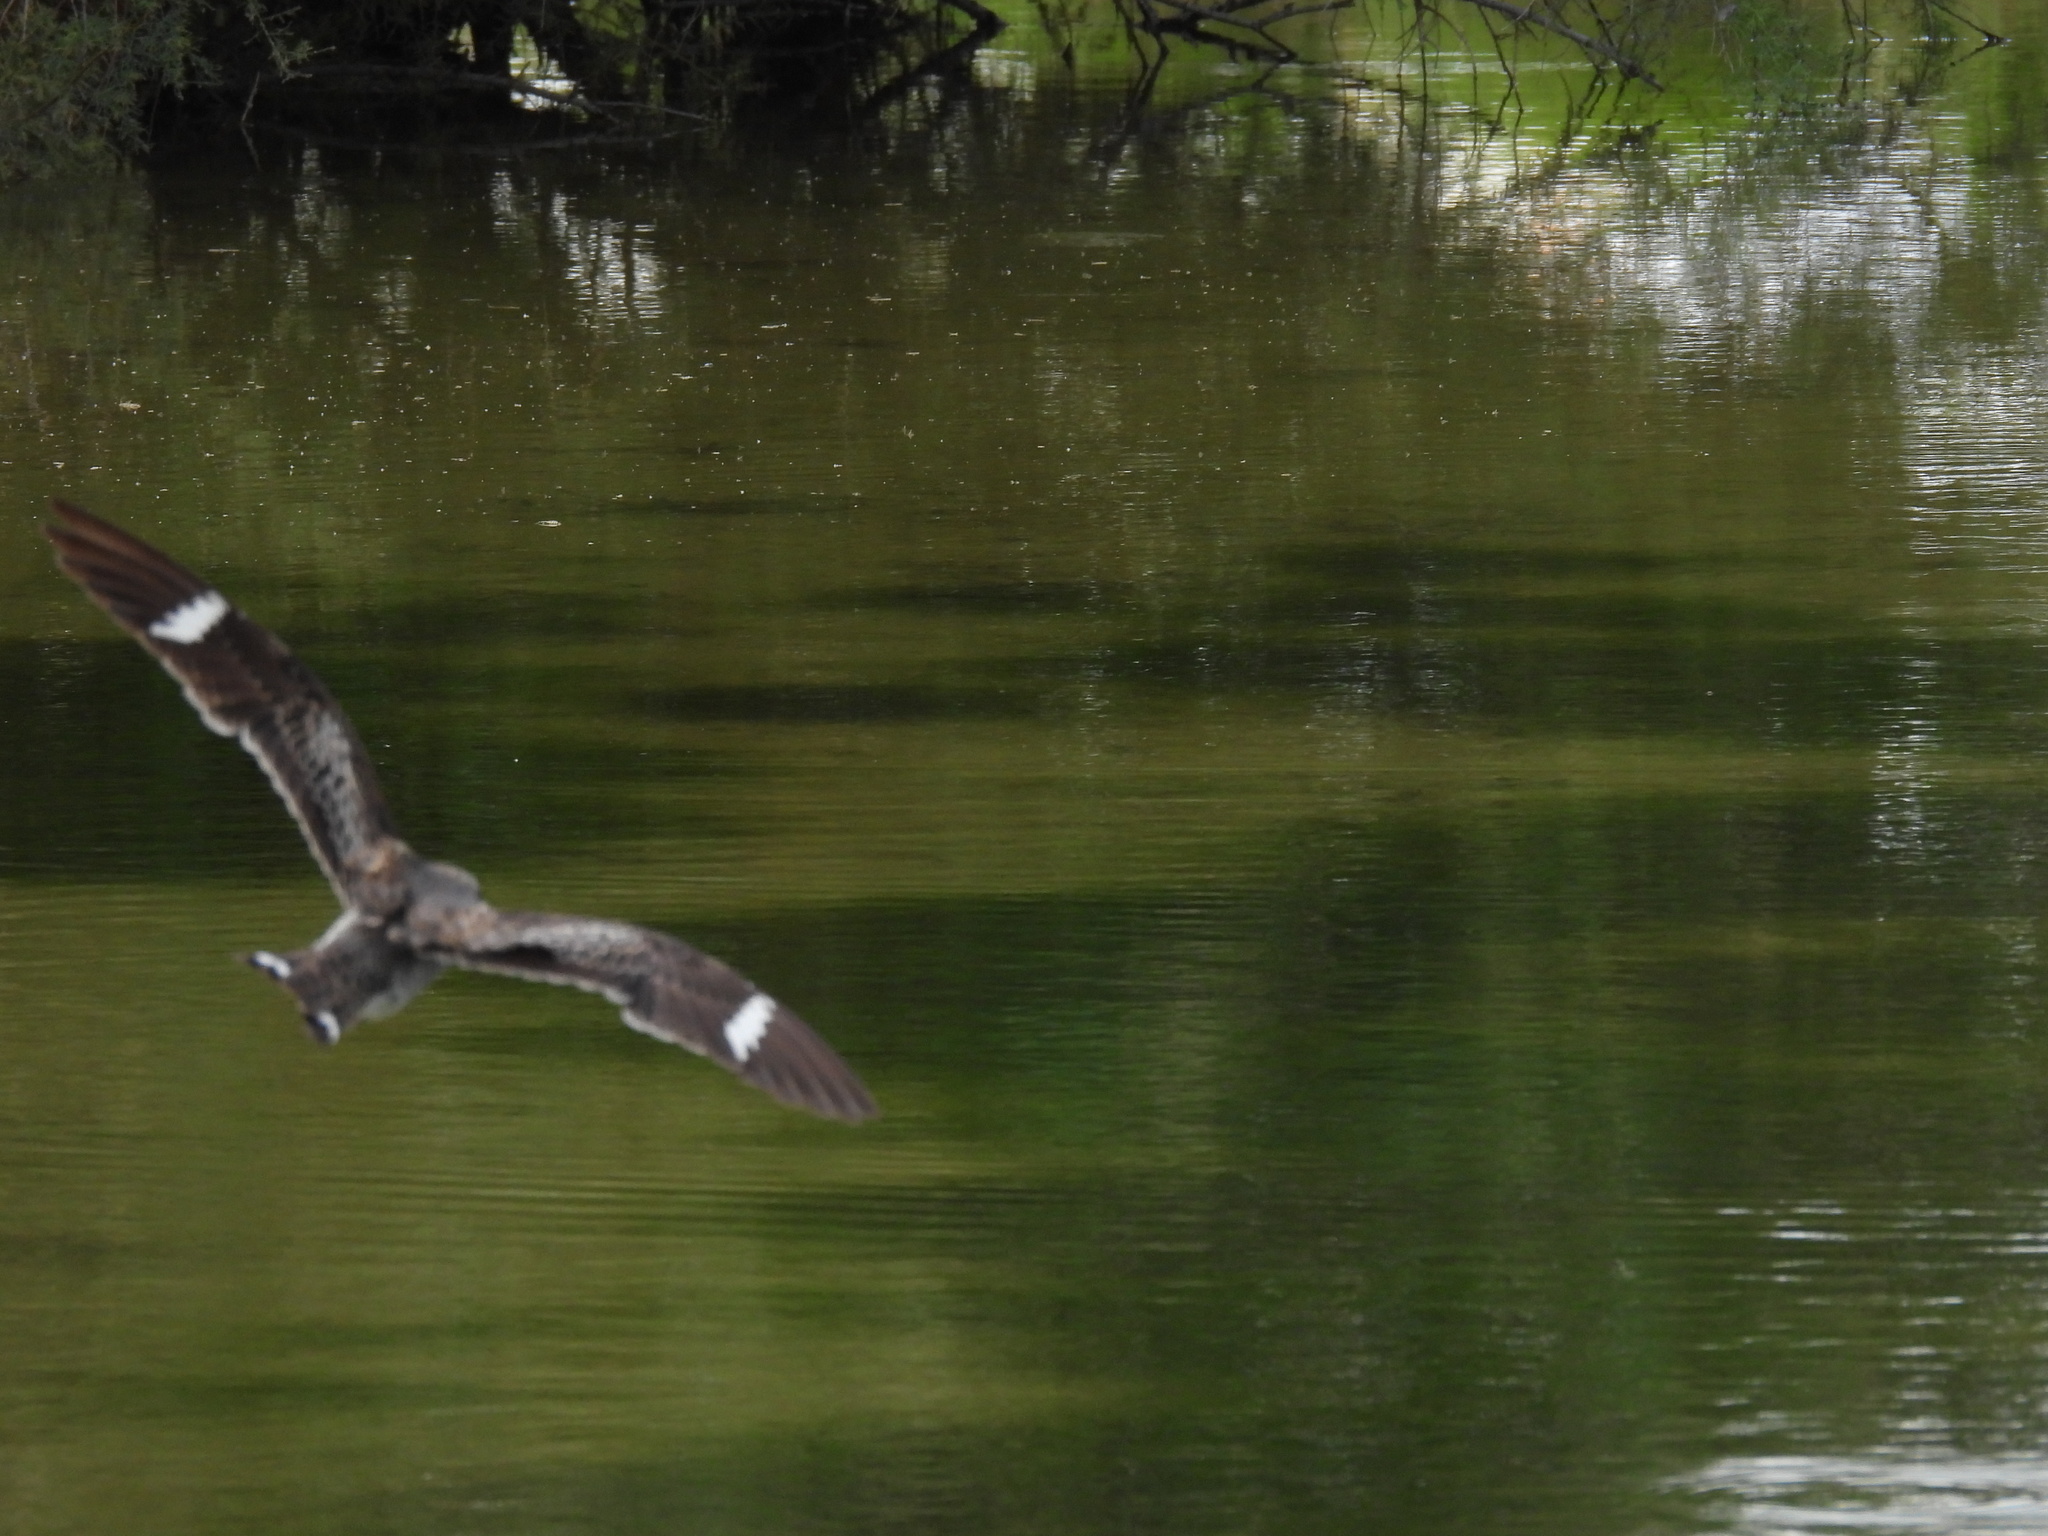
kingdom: Animalia
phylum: Chordata
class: Aves
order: Caprimulgiformes
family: Caprimulgidae
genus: Chordeiles
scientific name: Chordeiles minor
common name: Common nighthawk
